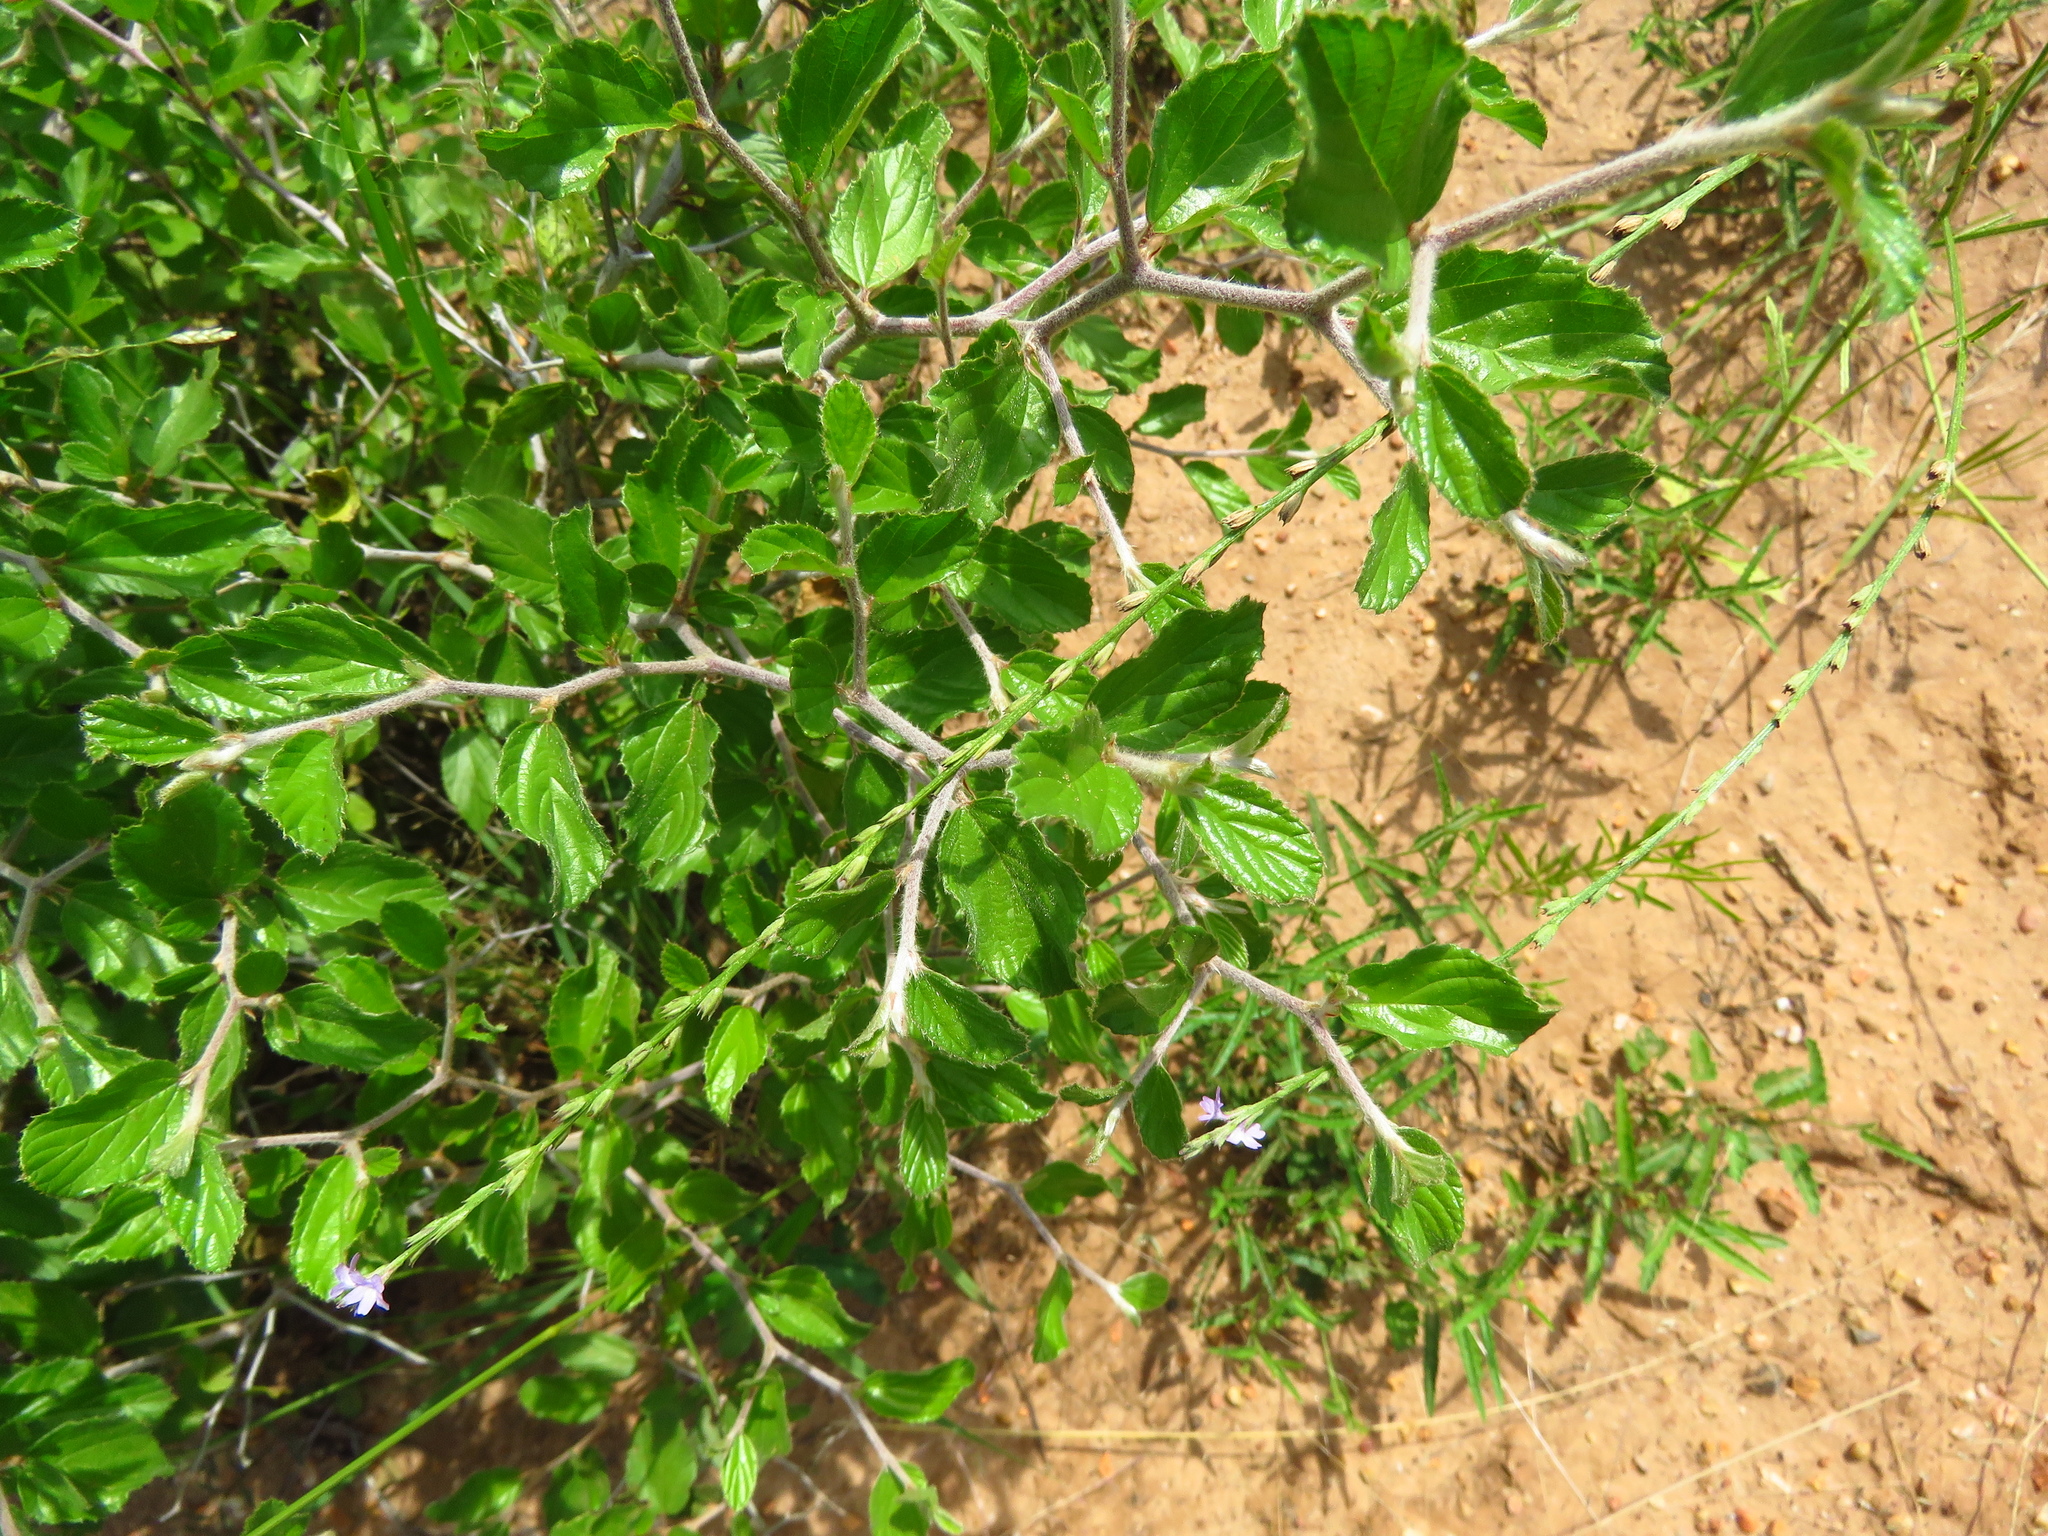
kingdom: Plantae
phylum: Tracheophyta
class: Magnoliopsida
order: Rosales
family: Rhamnaceae
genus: Colubrina
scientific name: Colubrina texensis
